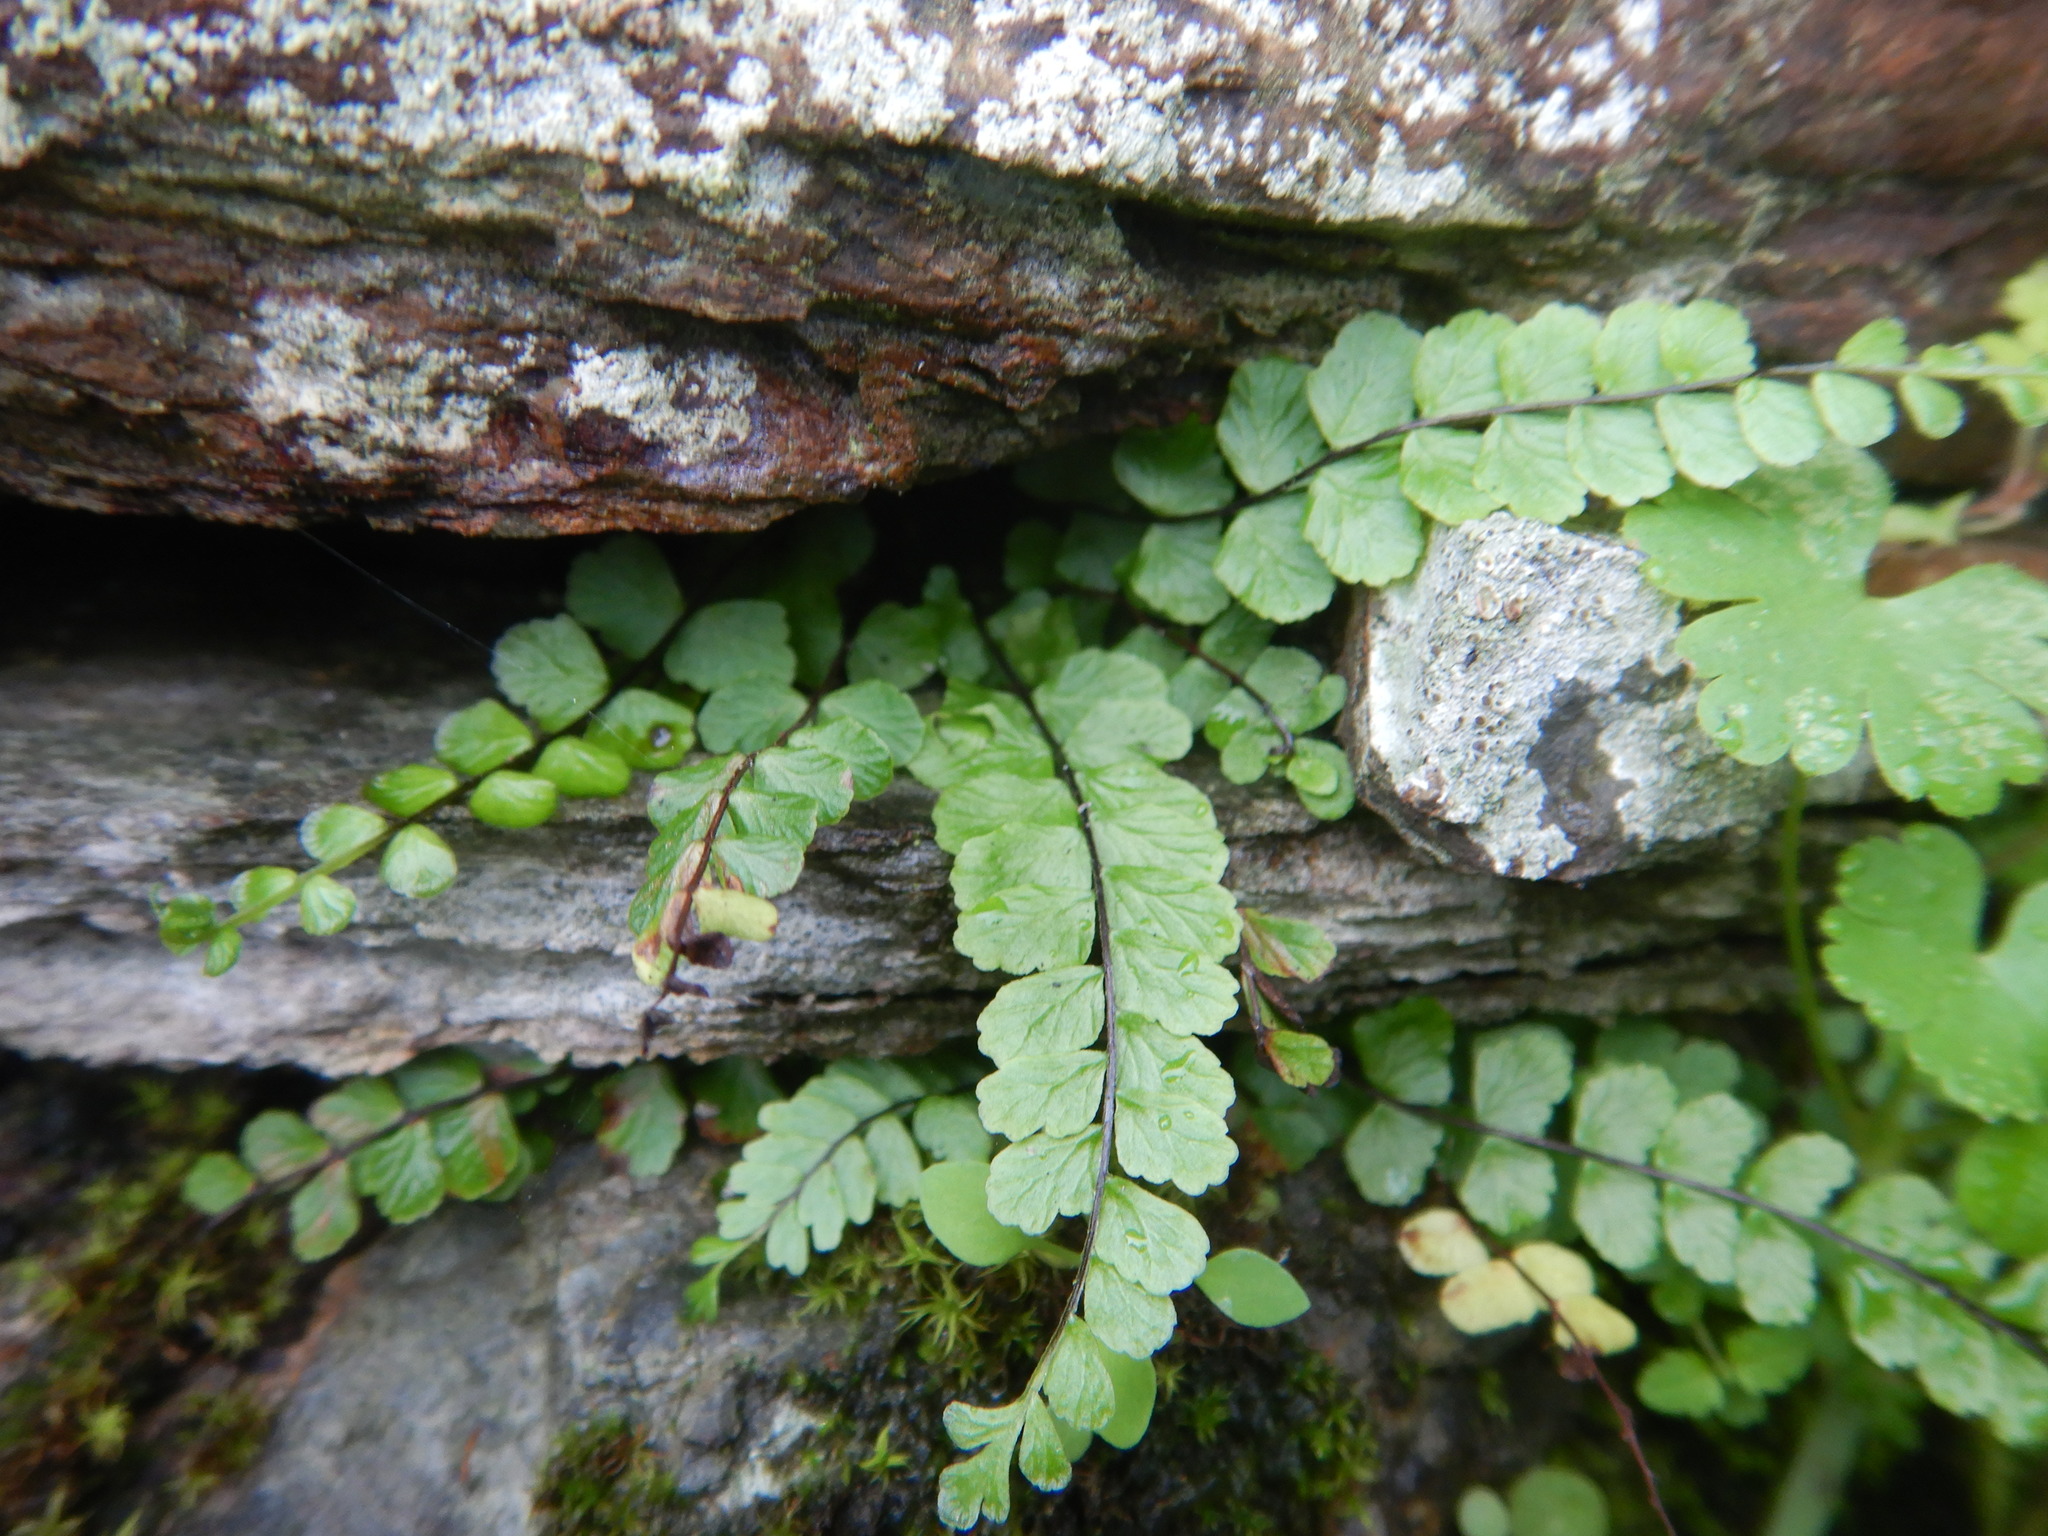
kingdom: Plantae
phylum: Tracheophyta
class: Polypodiopsida
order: Polypodiales
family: Aspleniaceae
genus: Asplenium
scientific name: Asplenium trichomanes
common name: Maidenhair spleenwort
